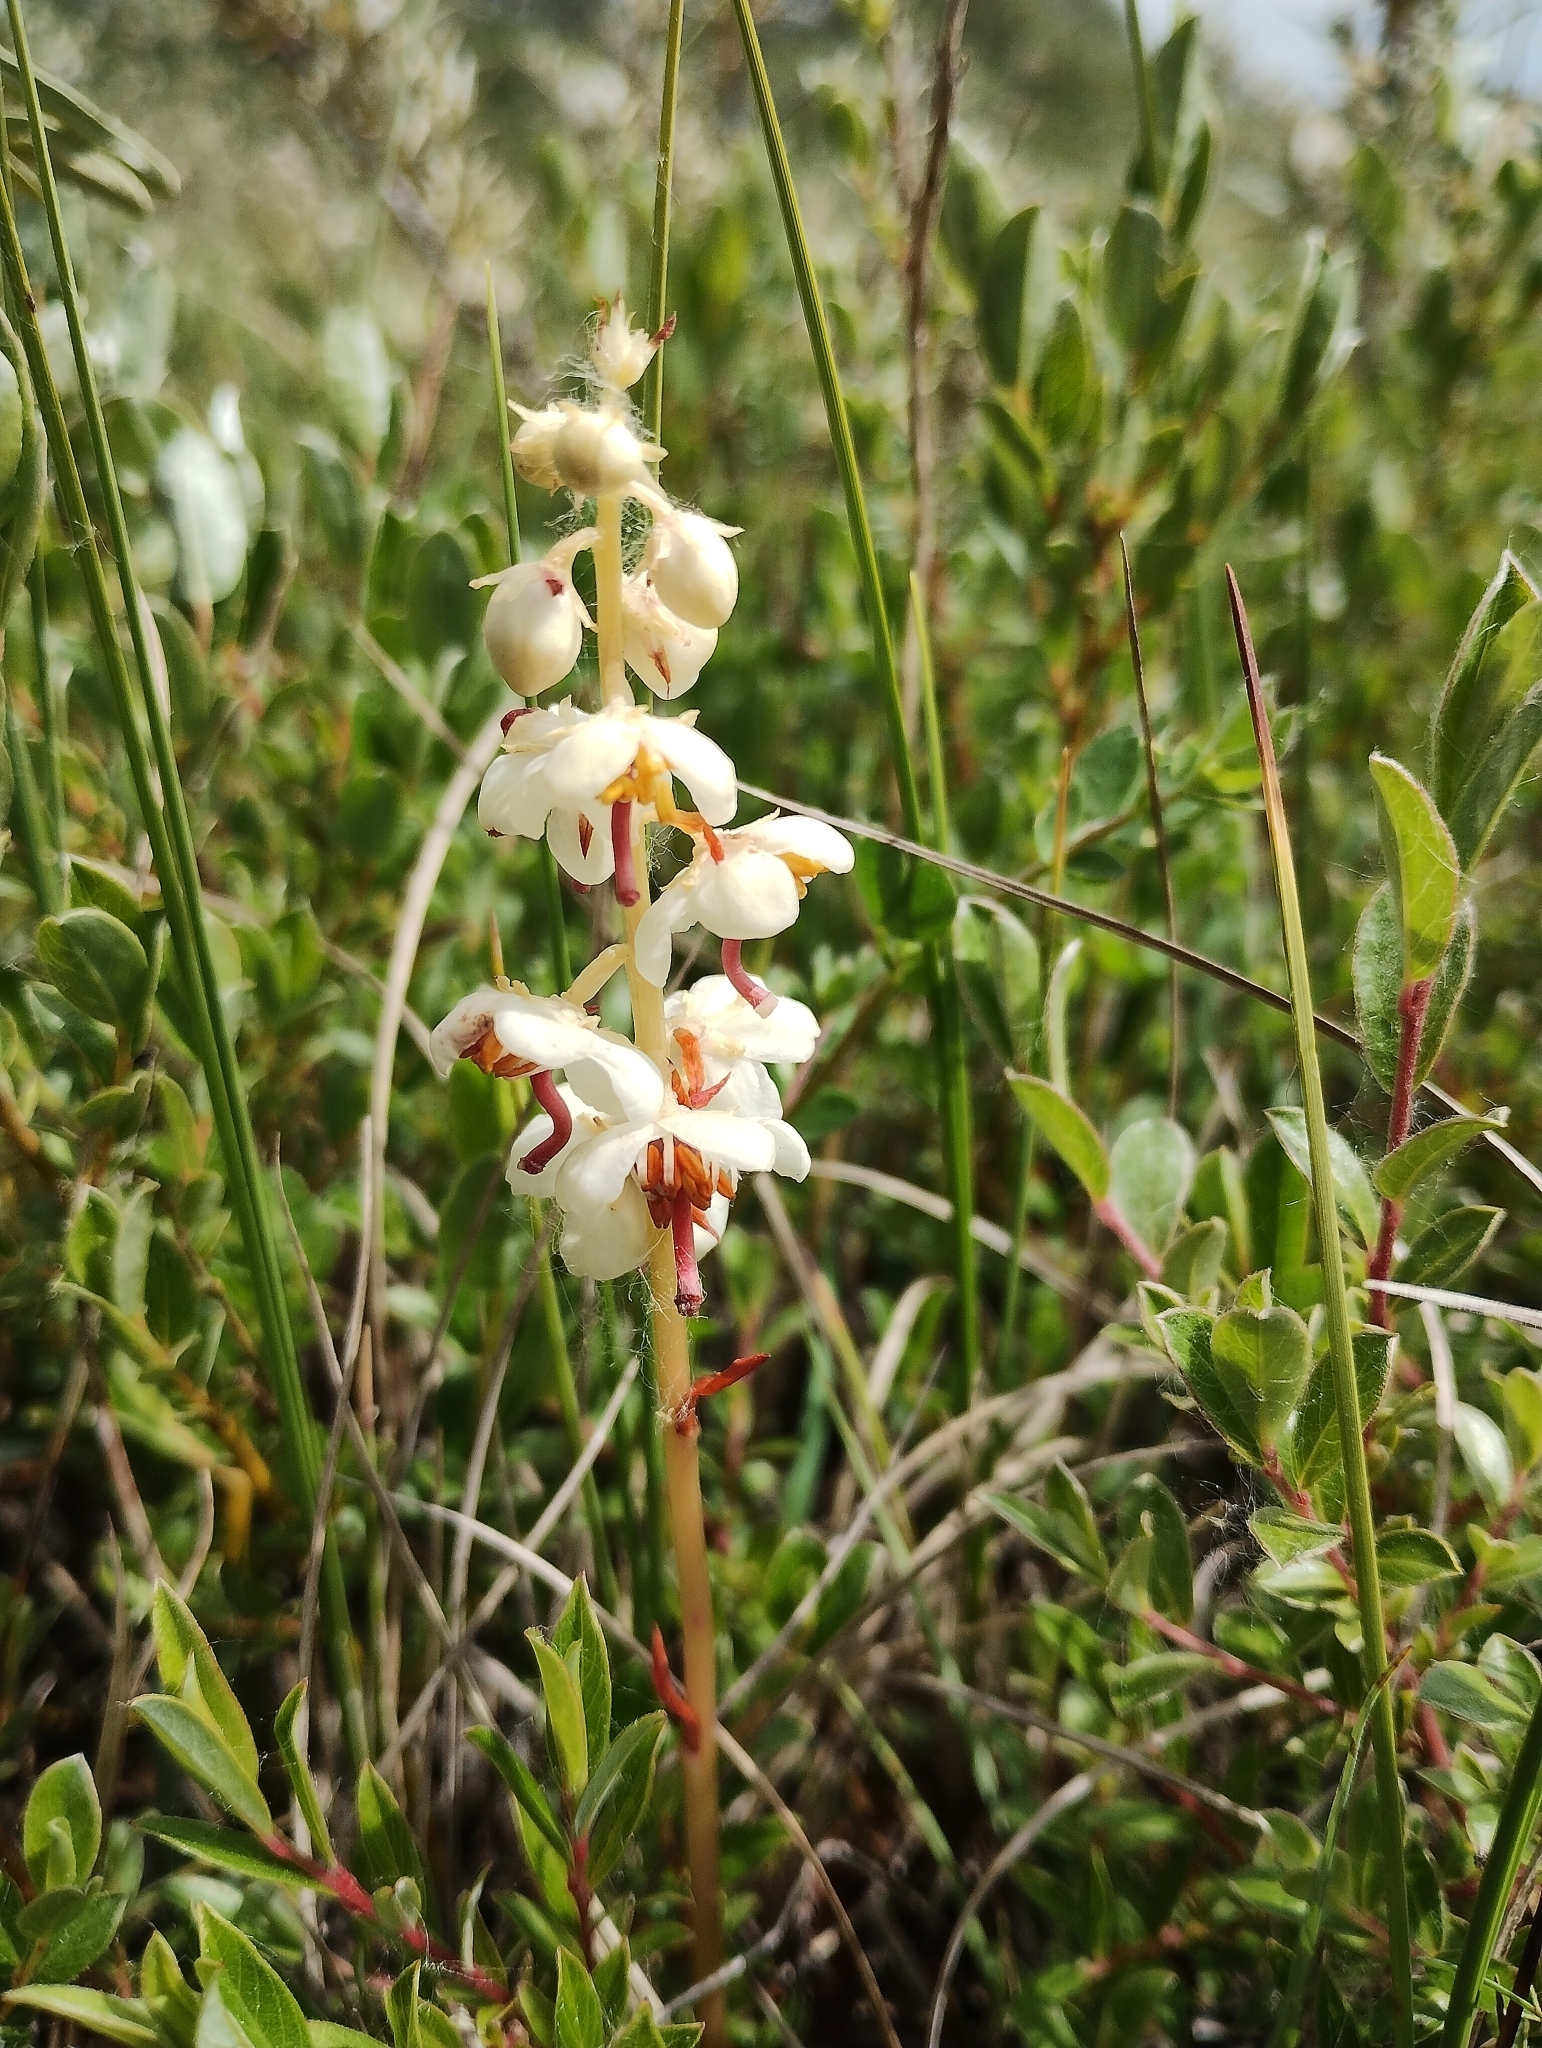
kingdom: Plantae
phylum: Tracheophyta
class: Magnoliopsida
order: Ericales
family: Ericaceae
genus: Pyrola
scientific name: Pyrola rotundifolia
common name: Round-leaved wintergreen
